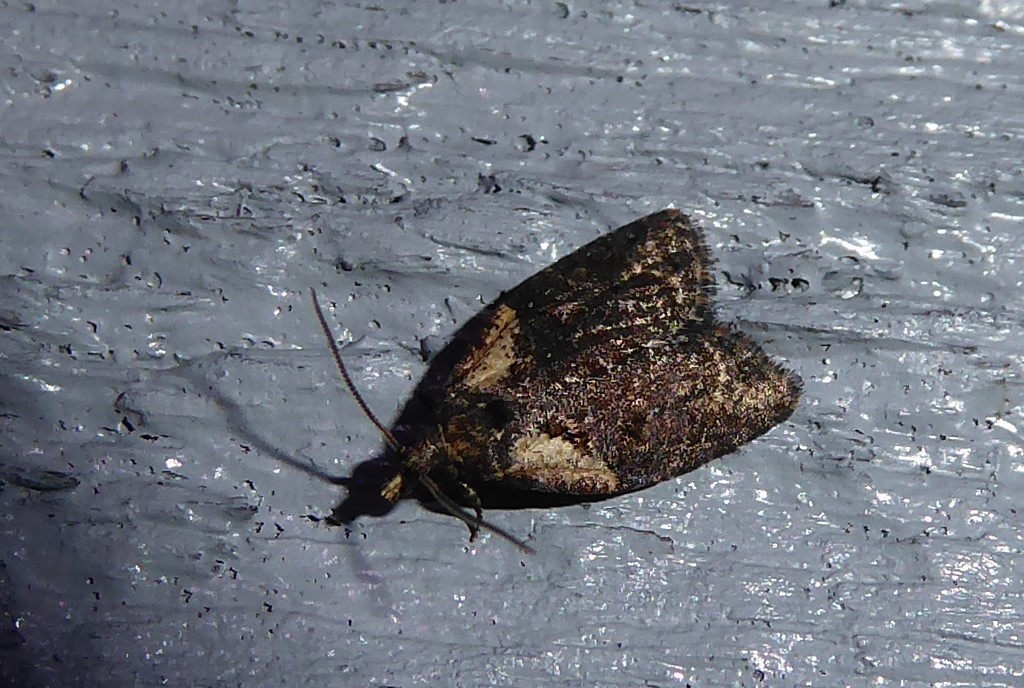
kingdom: Animalia
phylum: Arthropoda
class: Insecta
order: Lepidoptera
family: Tortricidae
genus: Capua
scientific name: Capua intractana
